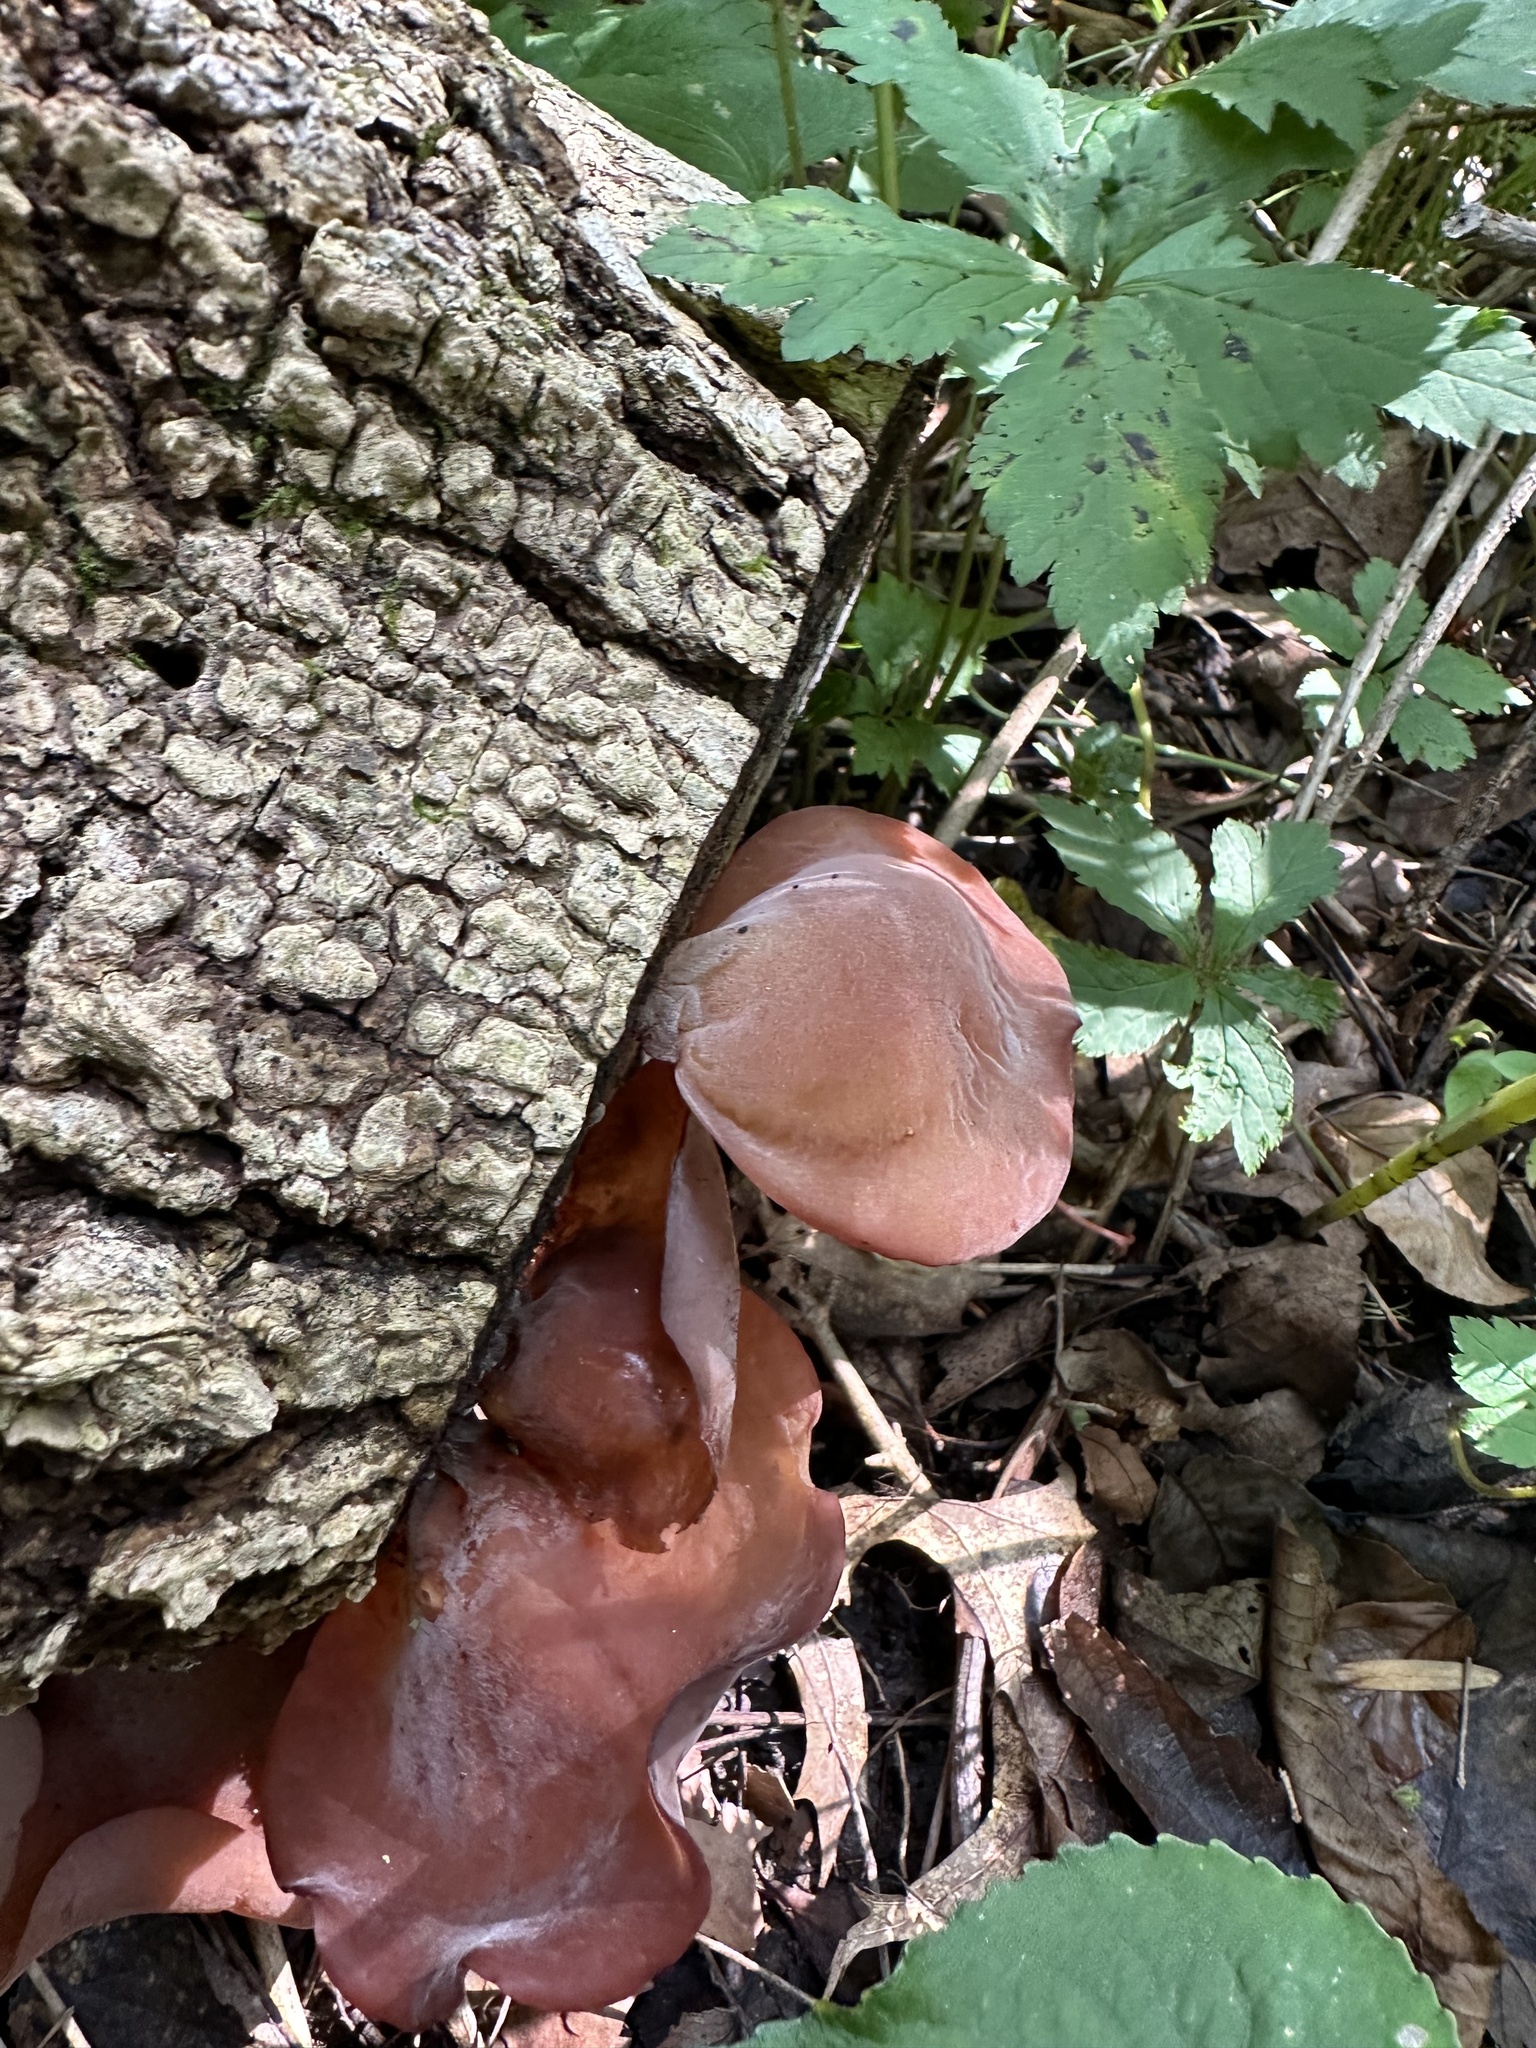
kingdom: Fungi
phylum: Basidiomycota
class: Agaricomycetes
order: Auriculariales
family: Auriculariaceae
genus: Auricularia
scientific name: Auricularia angiospermarum
